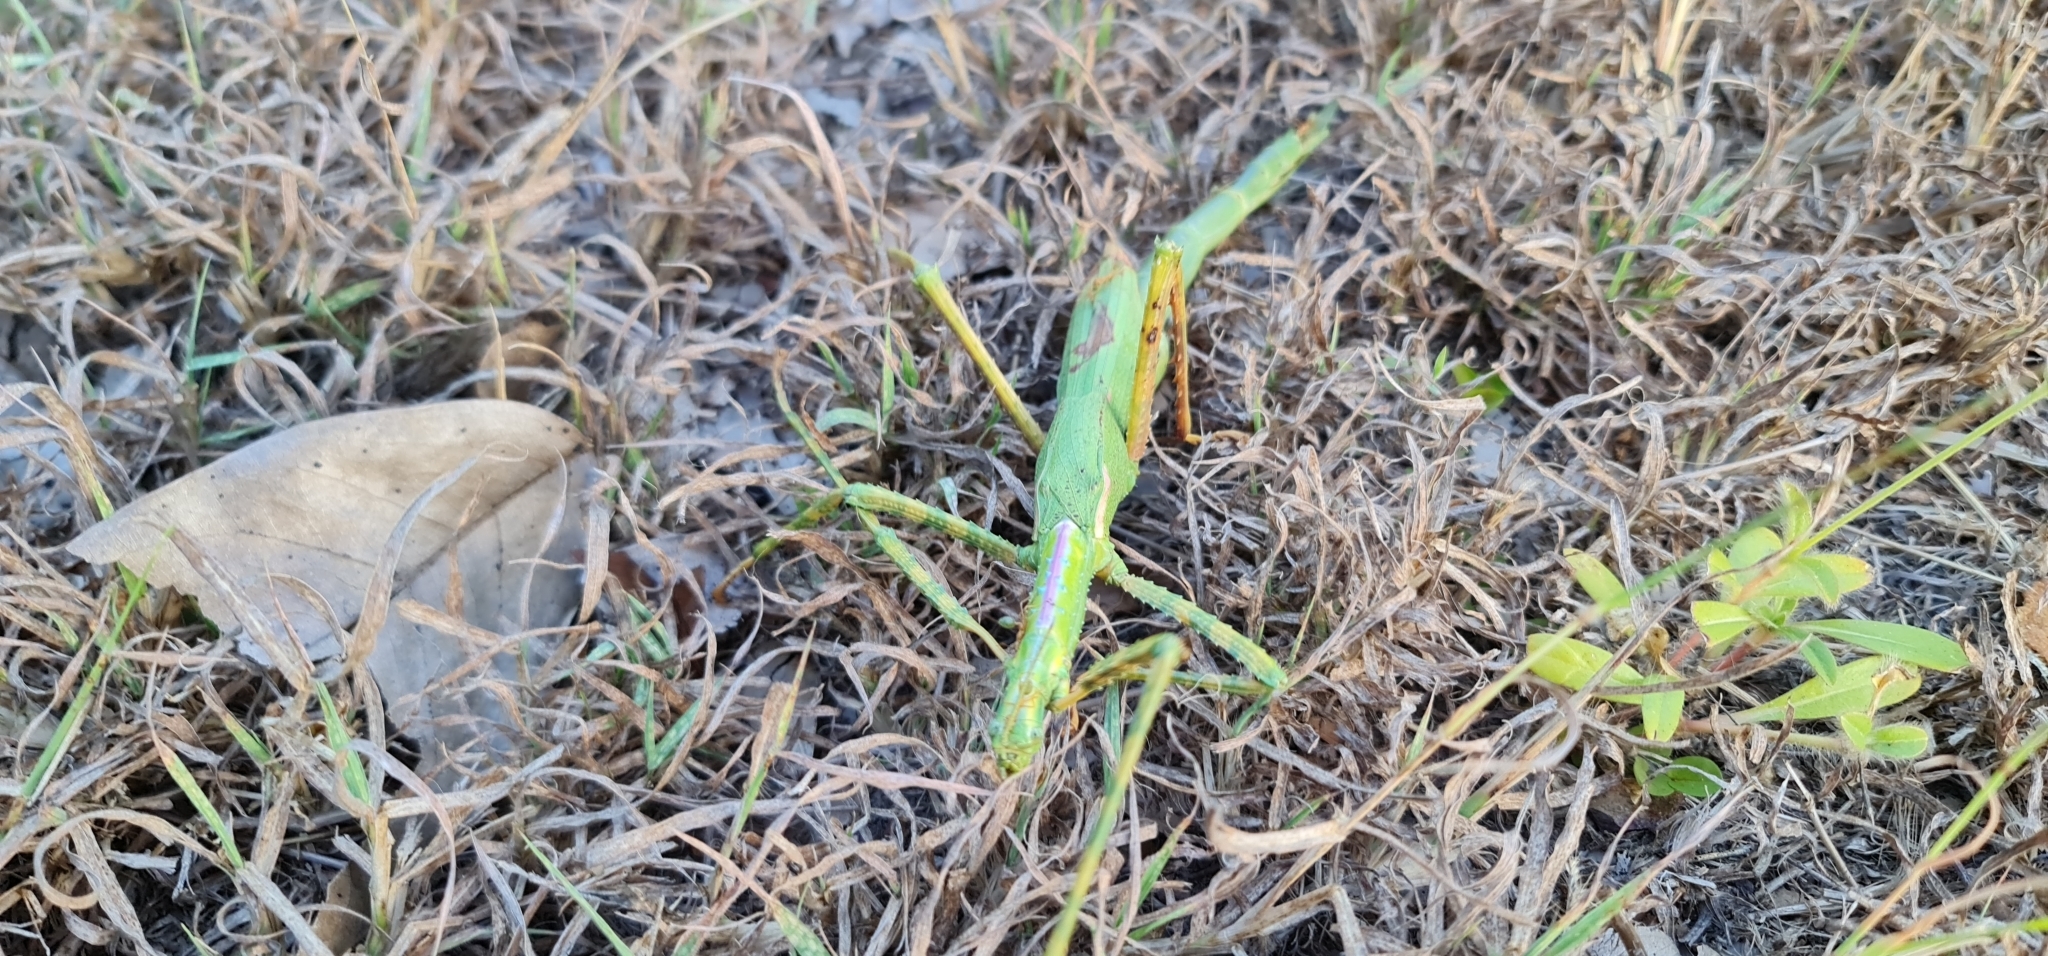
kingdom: Animalia
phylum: Arthropoda
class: Insecta
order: Phasmida
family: Phasmatidae
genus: Eurycnema
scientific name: Eurycnema osiris
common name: Darwin stick insect
